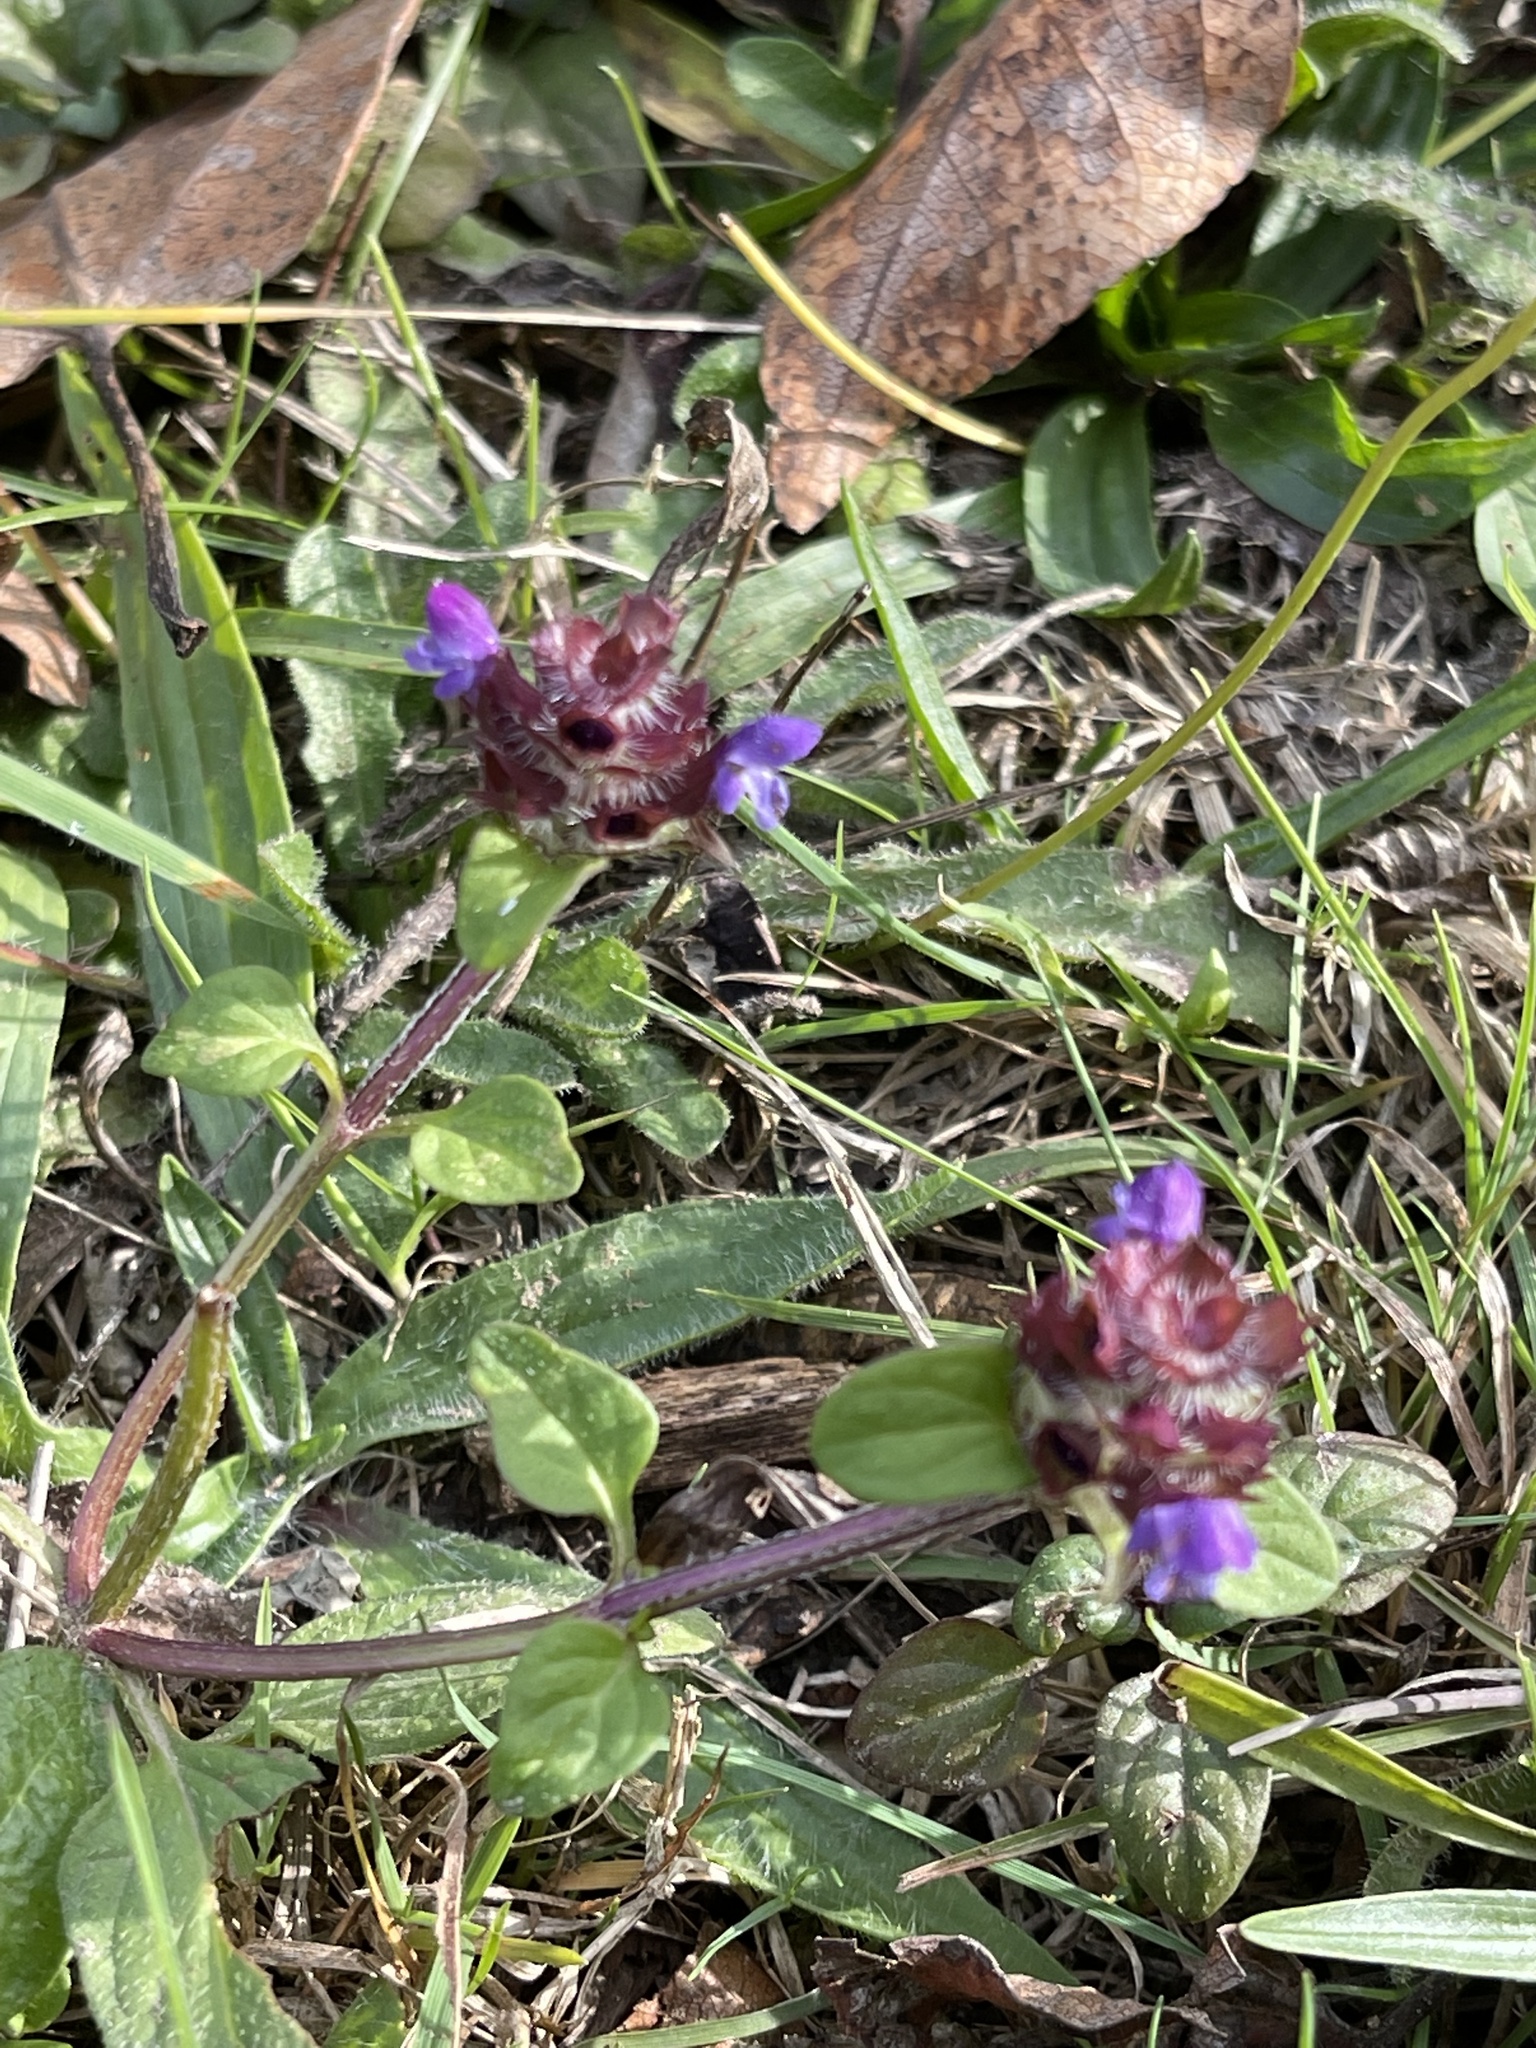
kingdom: Plantae
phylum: Tracheophyta
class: Magnoliopsida
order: Lamiales
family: Lamiaceae
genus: Prunella
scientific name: Prunella vulgaris
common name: Heal-all
